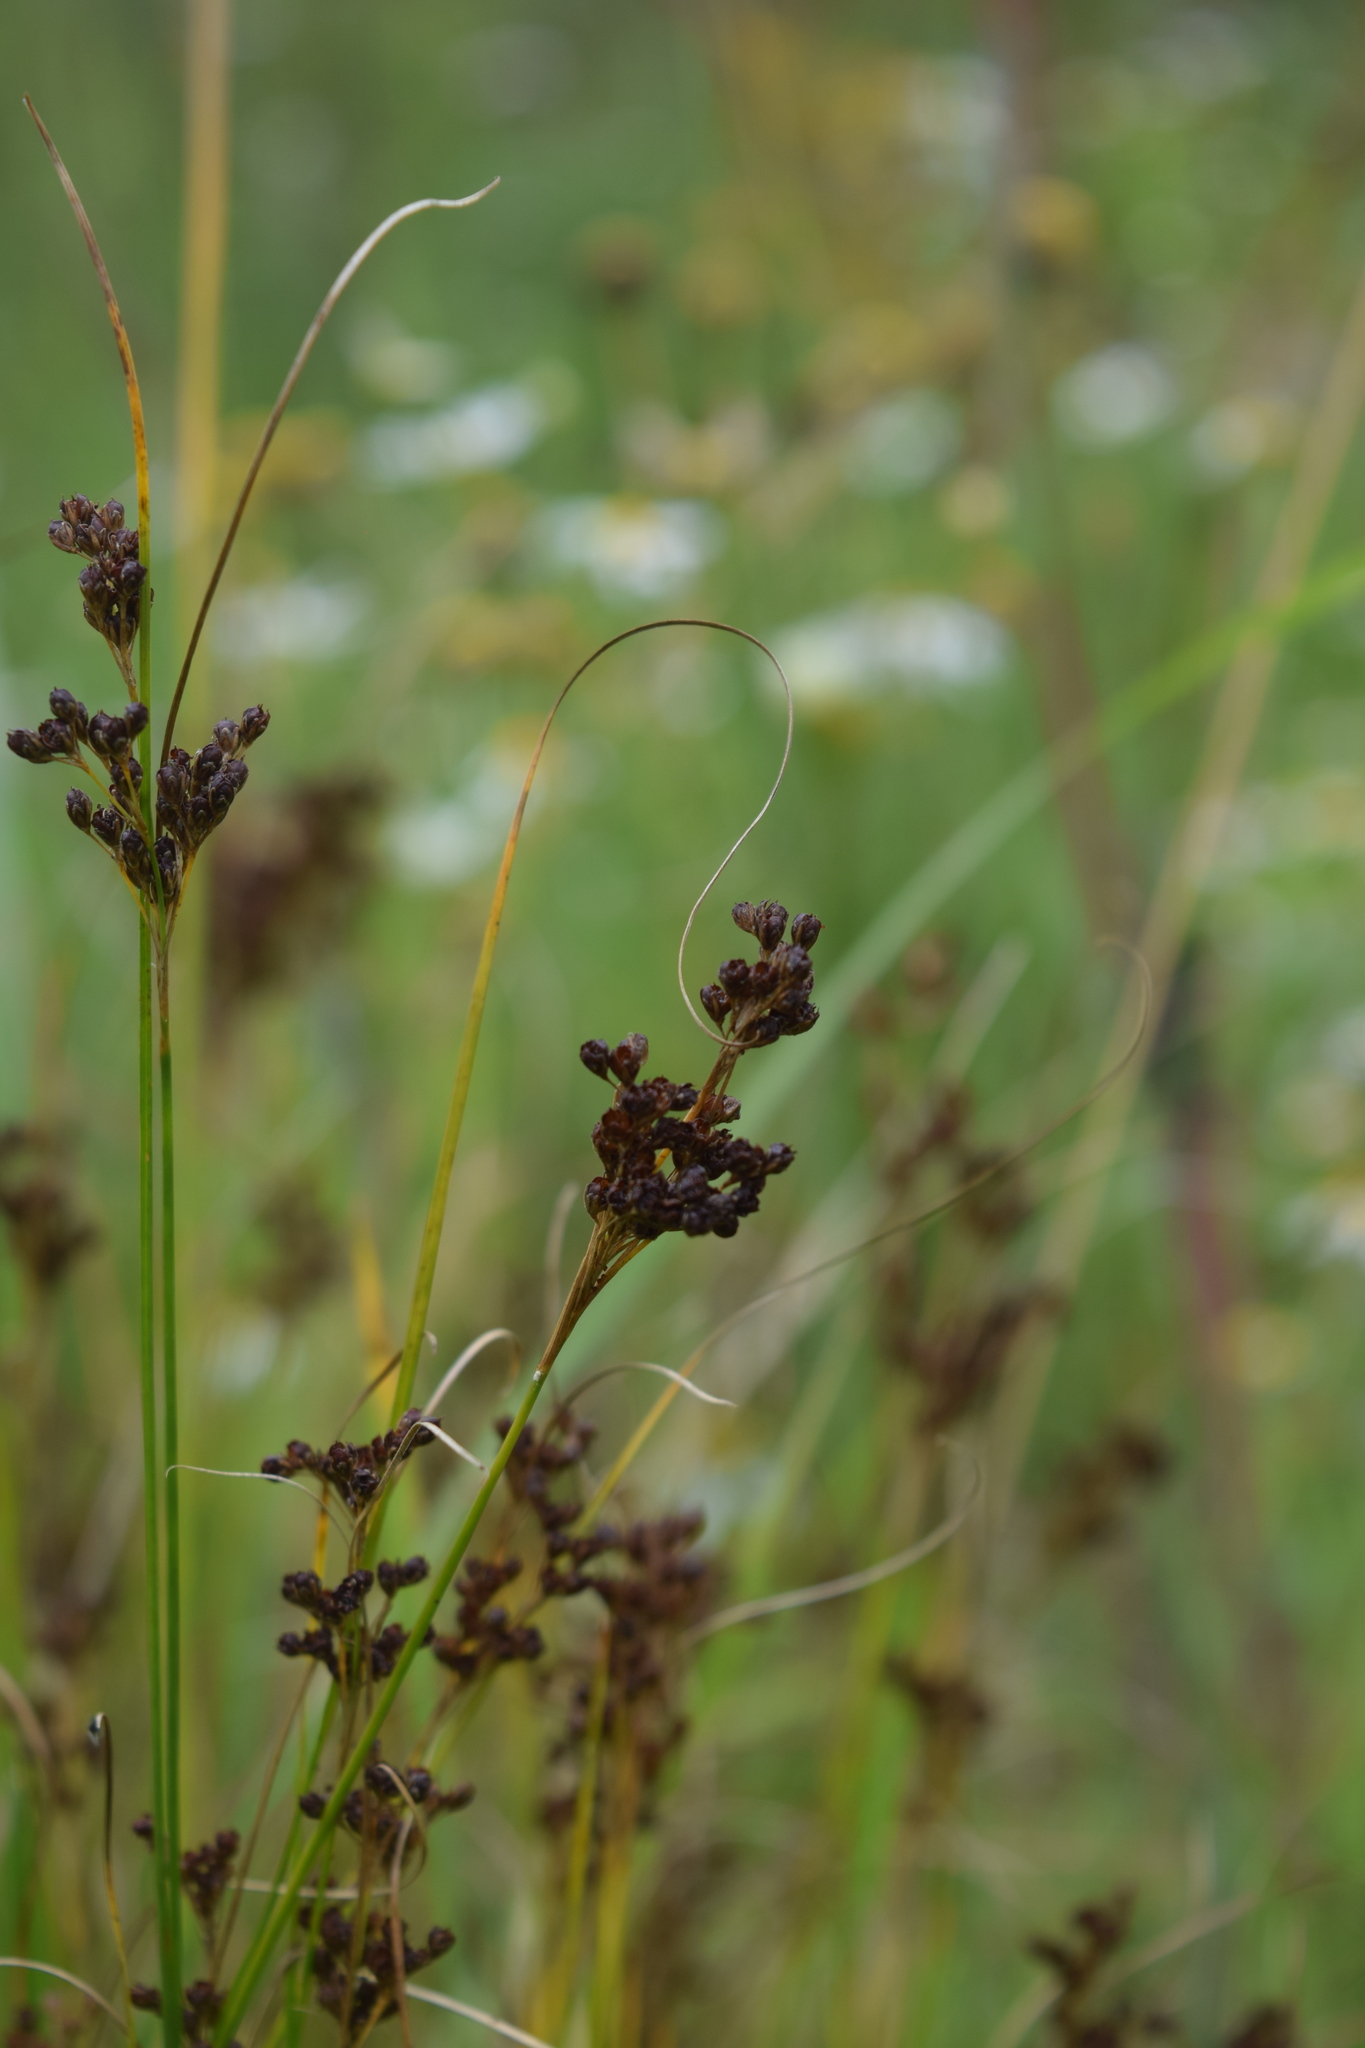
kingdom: Plantae
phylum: Tracheophyta
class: Liliopsida
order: Poales
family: Juncaceae
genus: Juncus
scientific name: Juncus compressus
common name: Round-fruited rush
